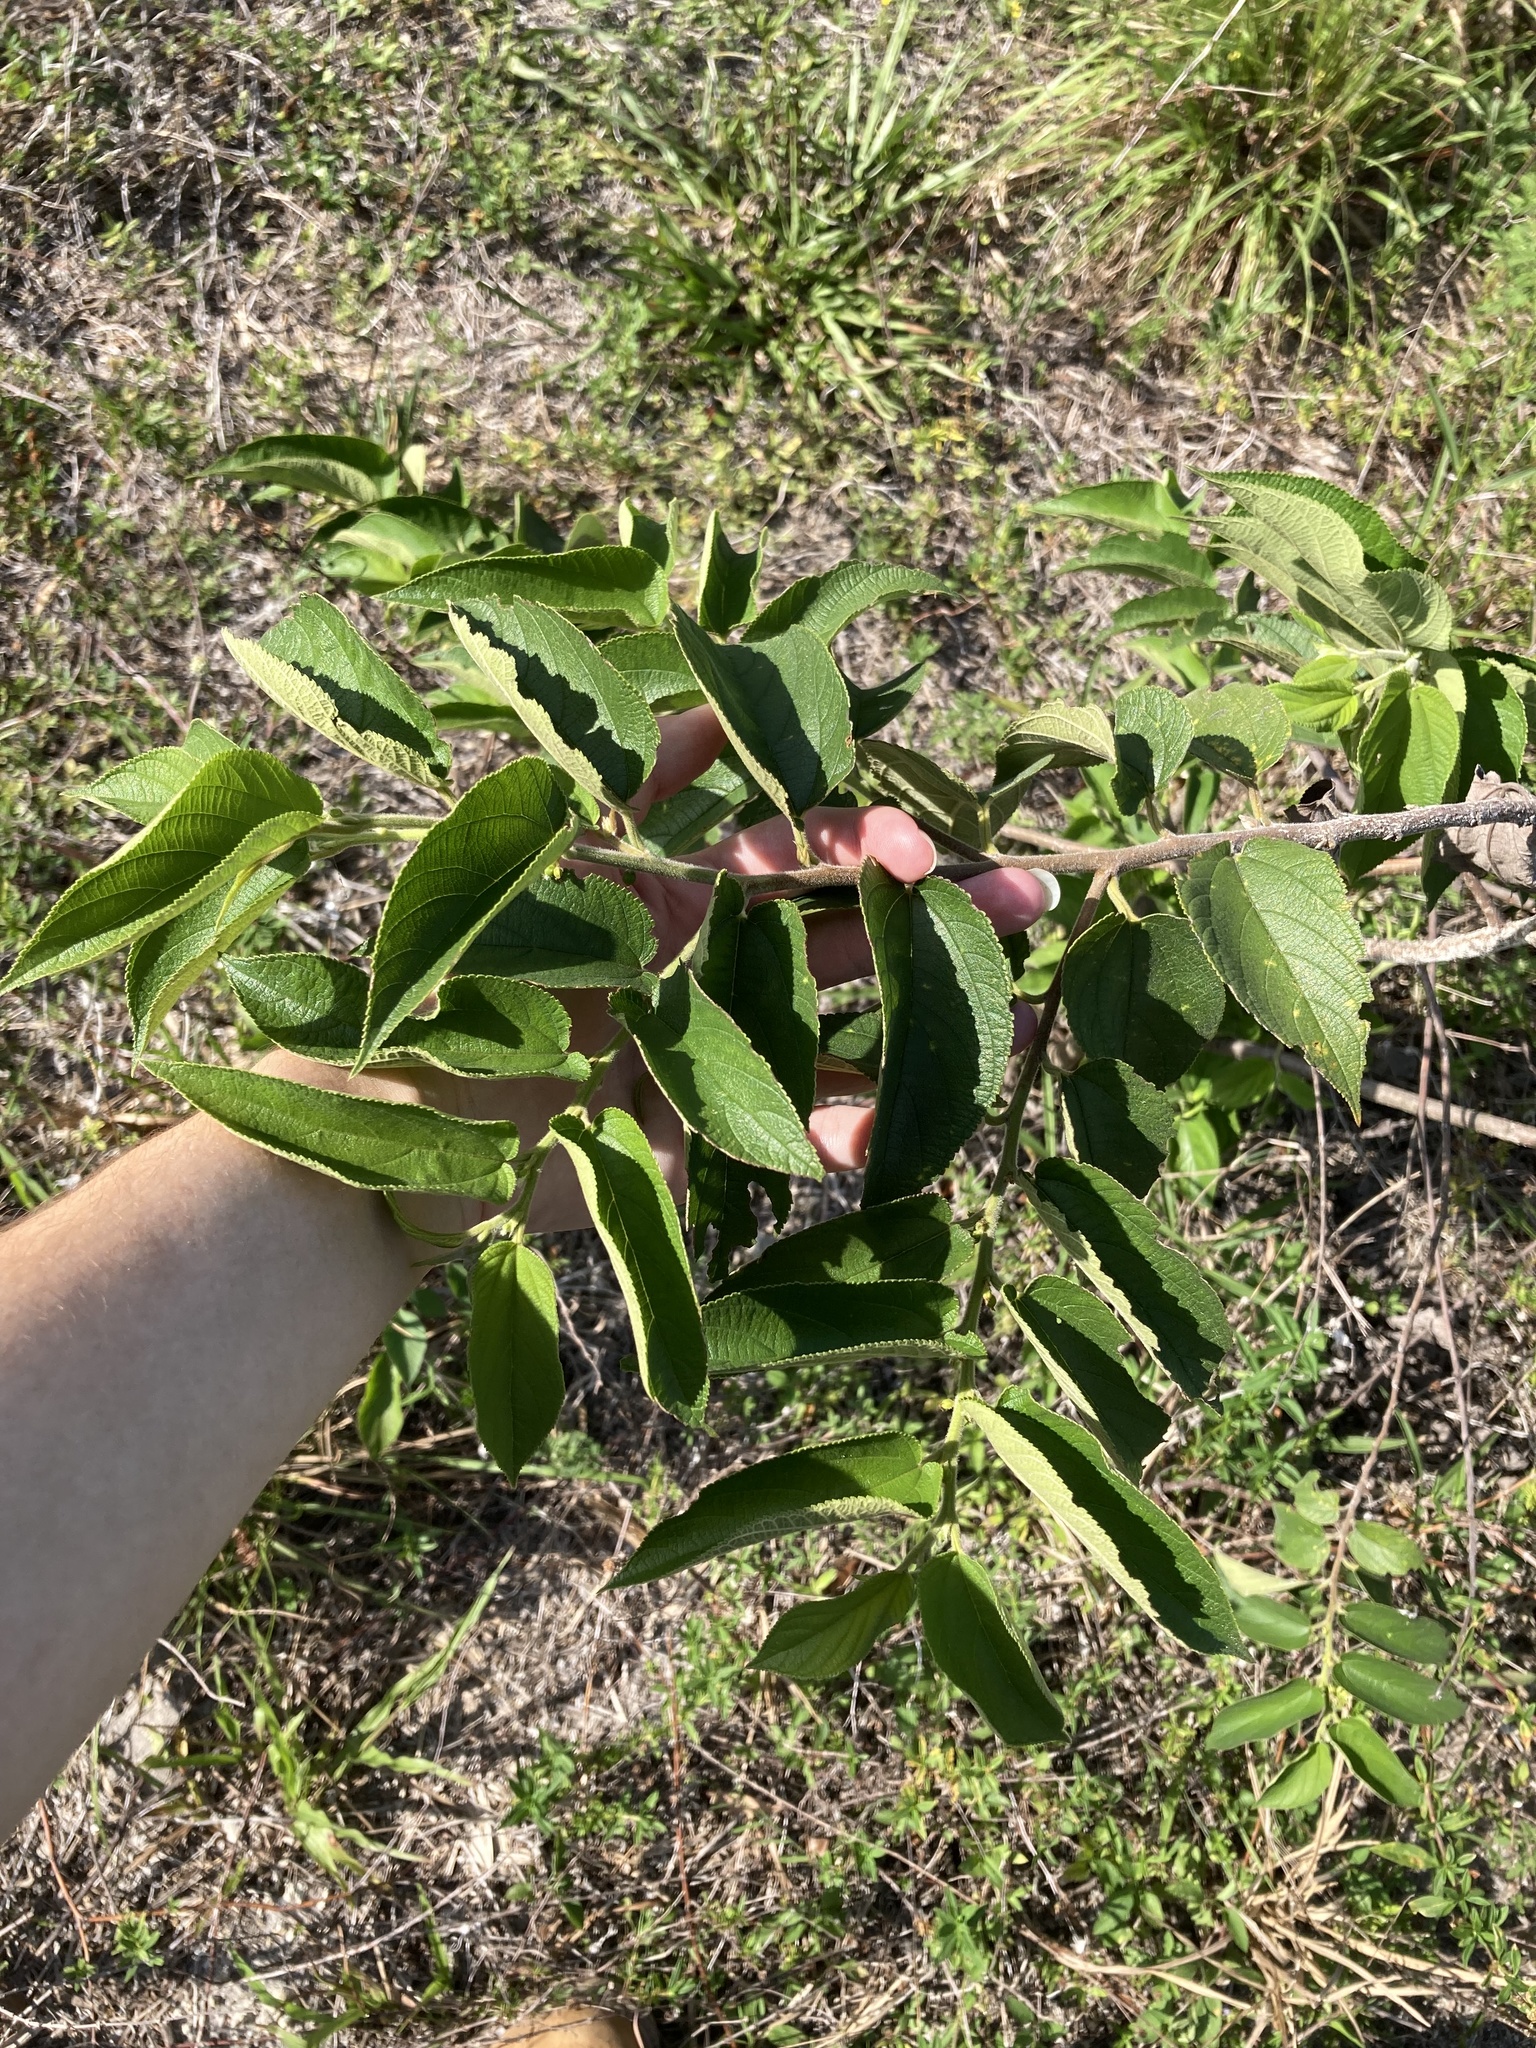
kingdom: Plantae
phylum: Tracheophyta
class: Magnoliopsida
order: Rosales
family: Cannabaceae
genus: Trema
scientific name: Trema micranthum
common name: Jamaican nettletree
